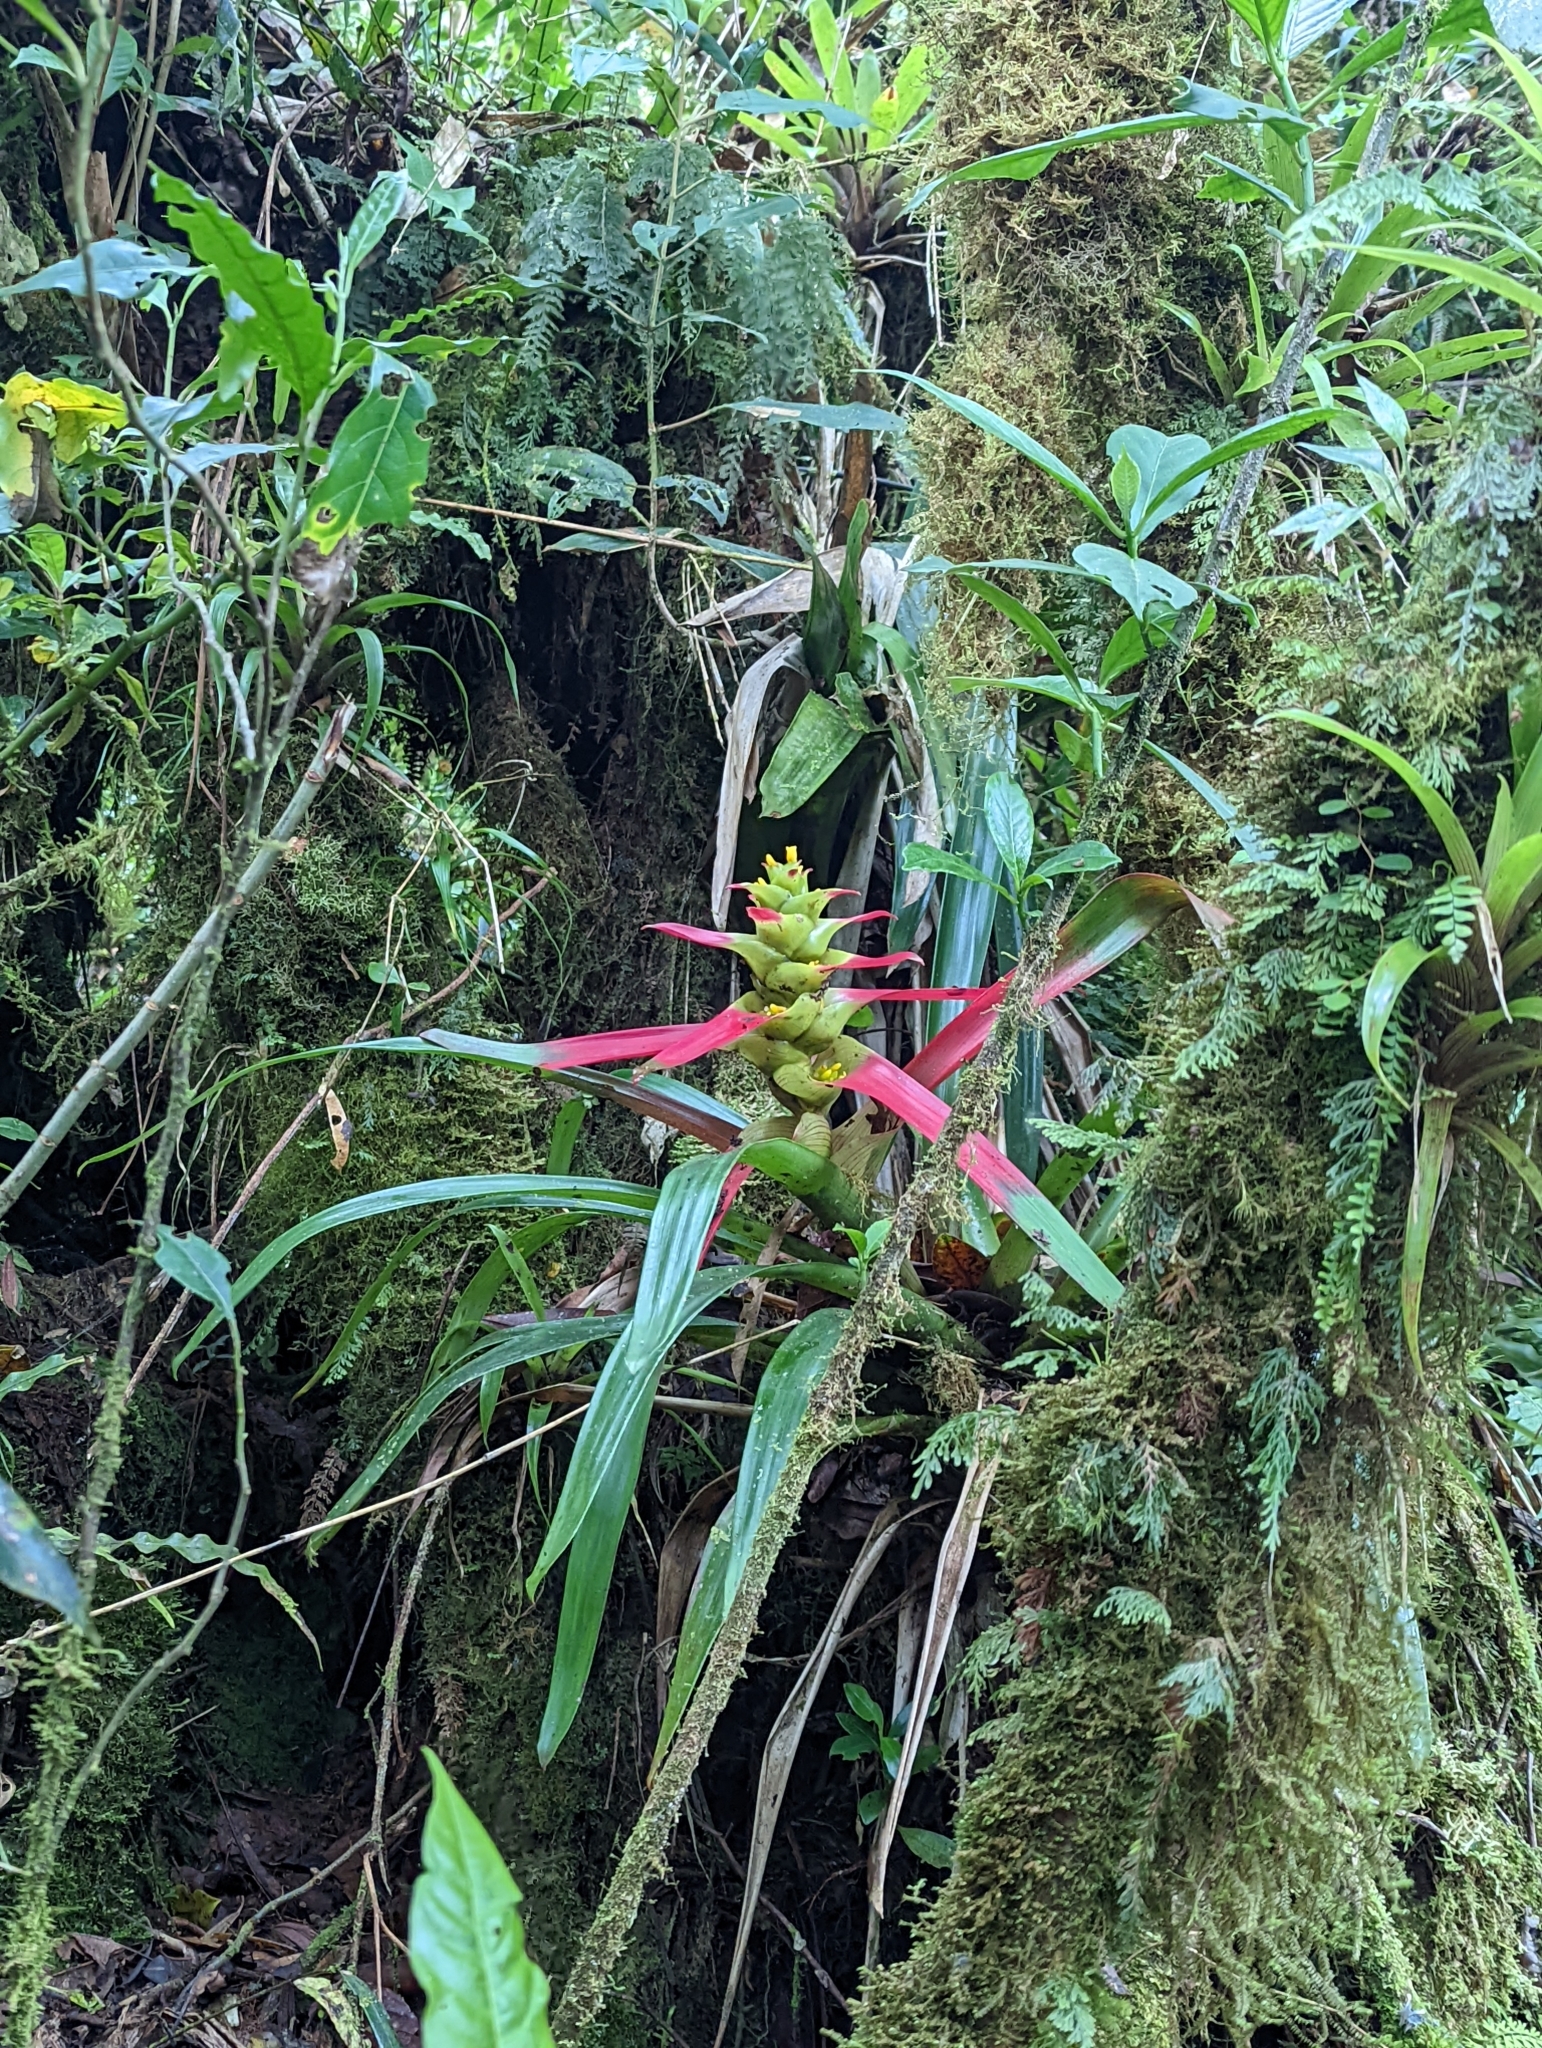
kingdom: Plantae
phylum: Tracheophyta
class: Liliopsida
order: Poales
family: Bromeliaceae
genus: Guzmania
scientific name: Guzmania squarrosa
